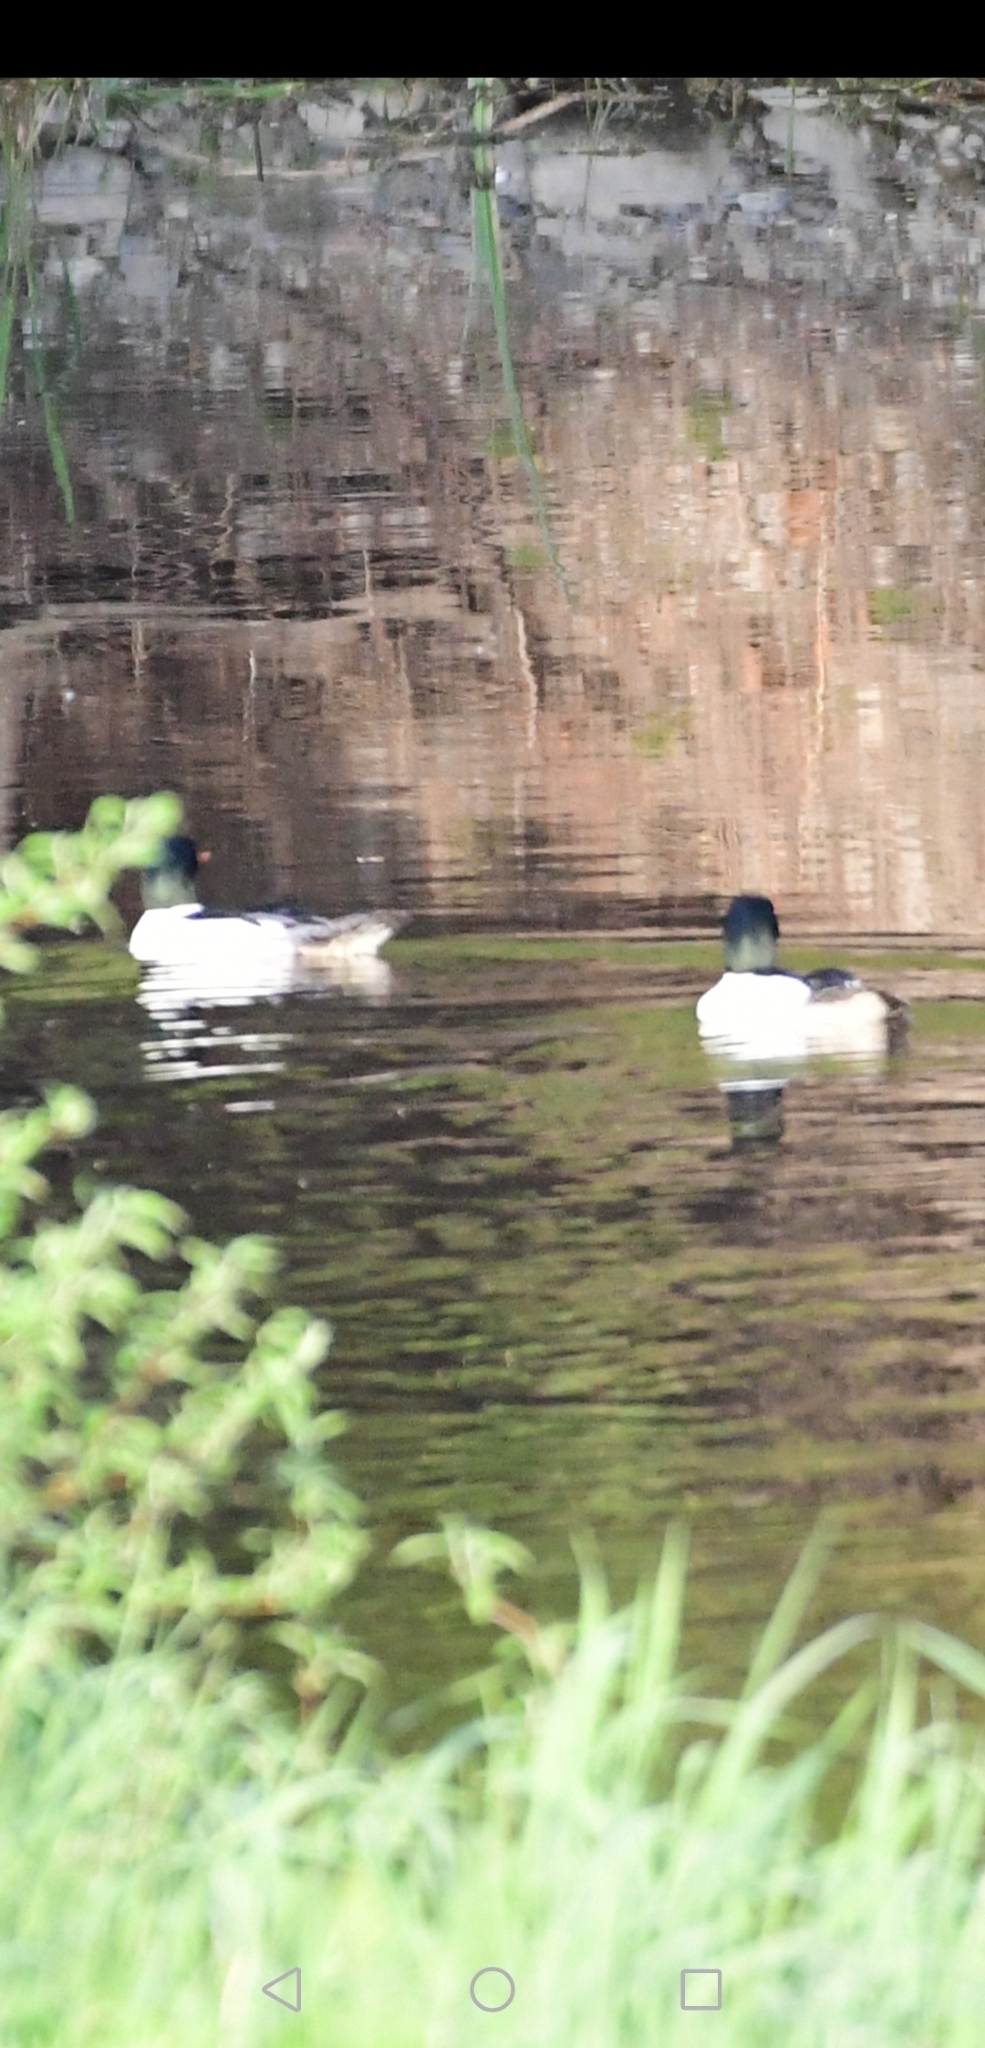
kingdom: Animalia
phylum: Chordata
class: Aves
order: Anseriformes
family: Anatidae
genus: Mergus
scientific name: Mergus merganser
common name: Common merganser
